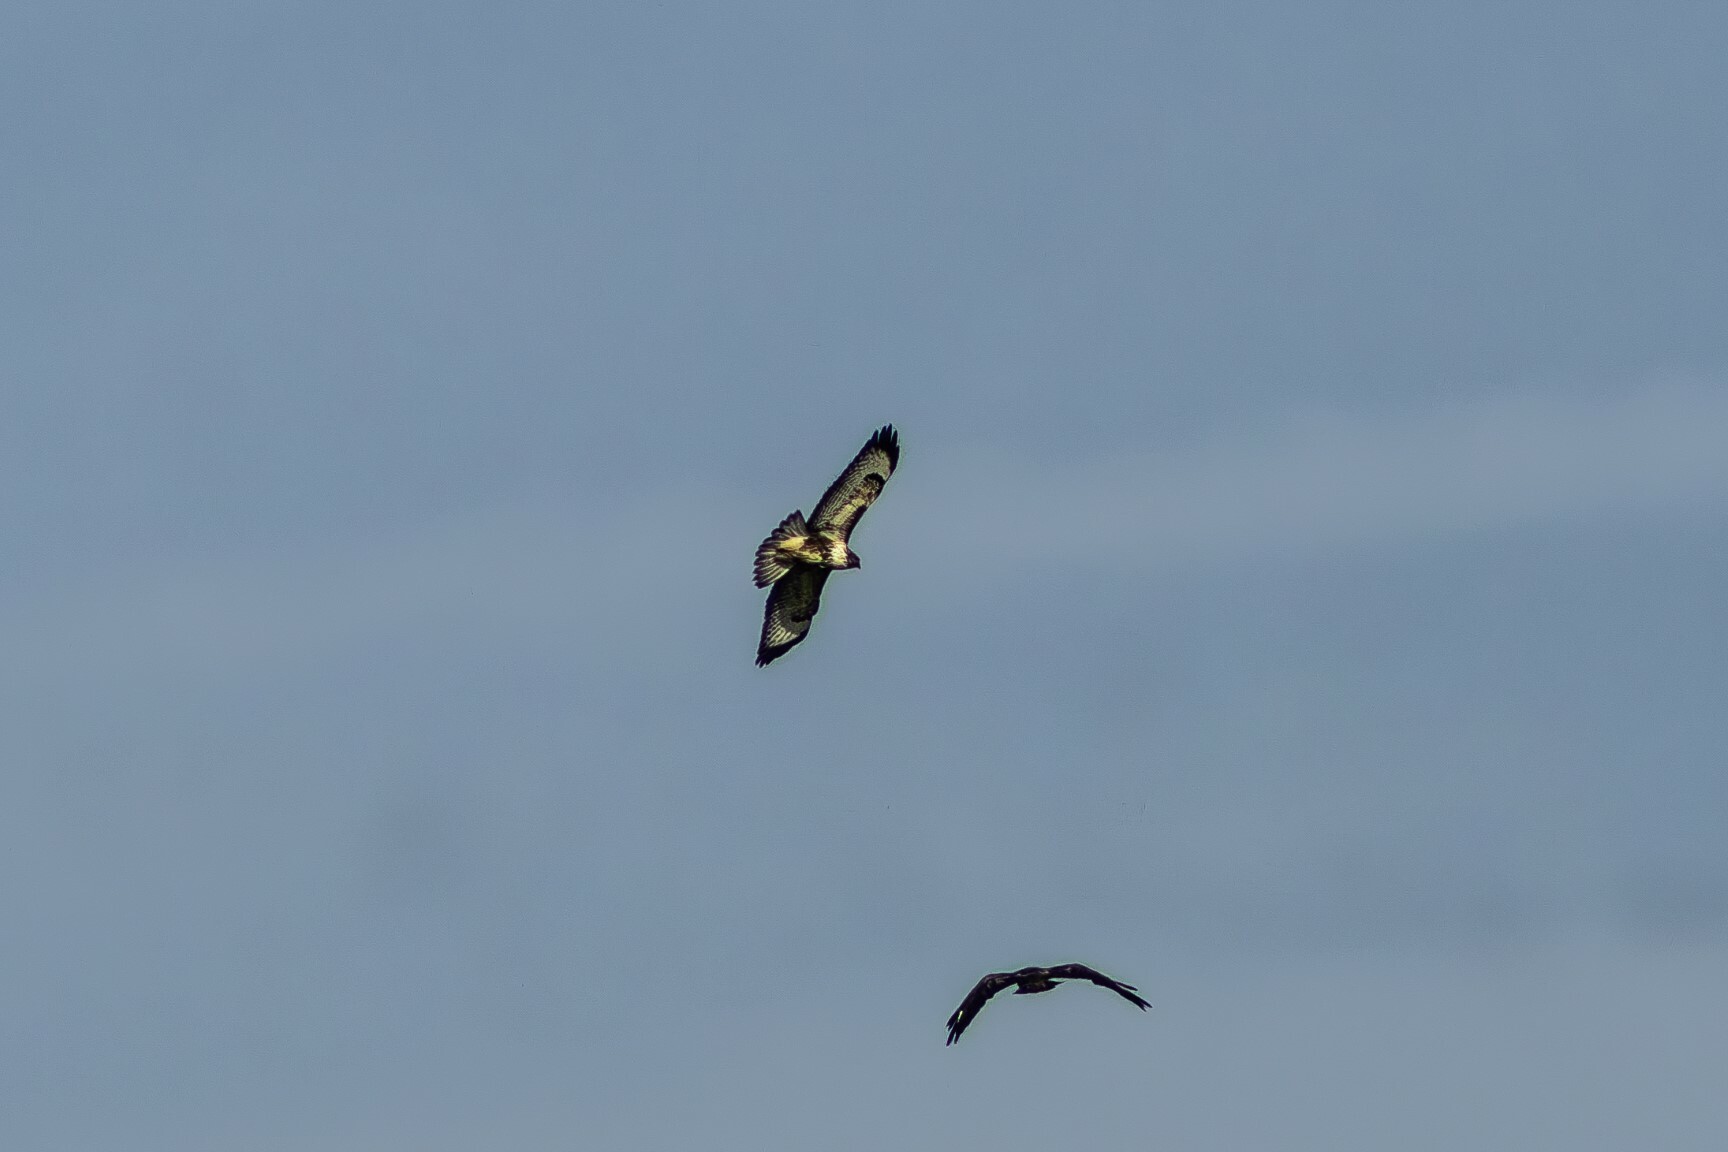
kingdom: Animalia
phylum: Chordata
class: Aves
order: Accipitriformes
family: Accipitridae
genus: Buteo
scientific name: Buteo buteo
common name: Common buzzard
